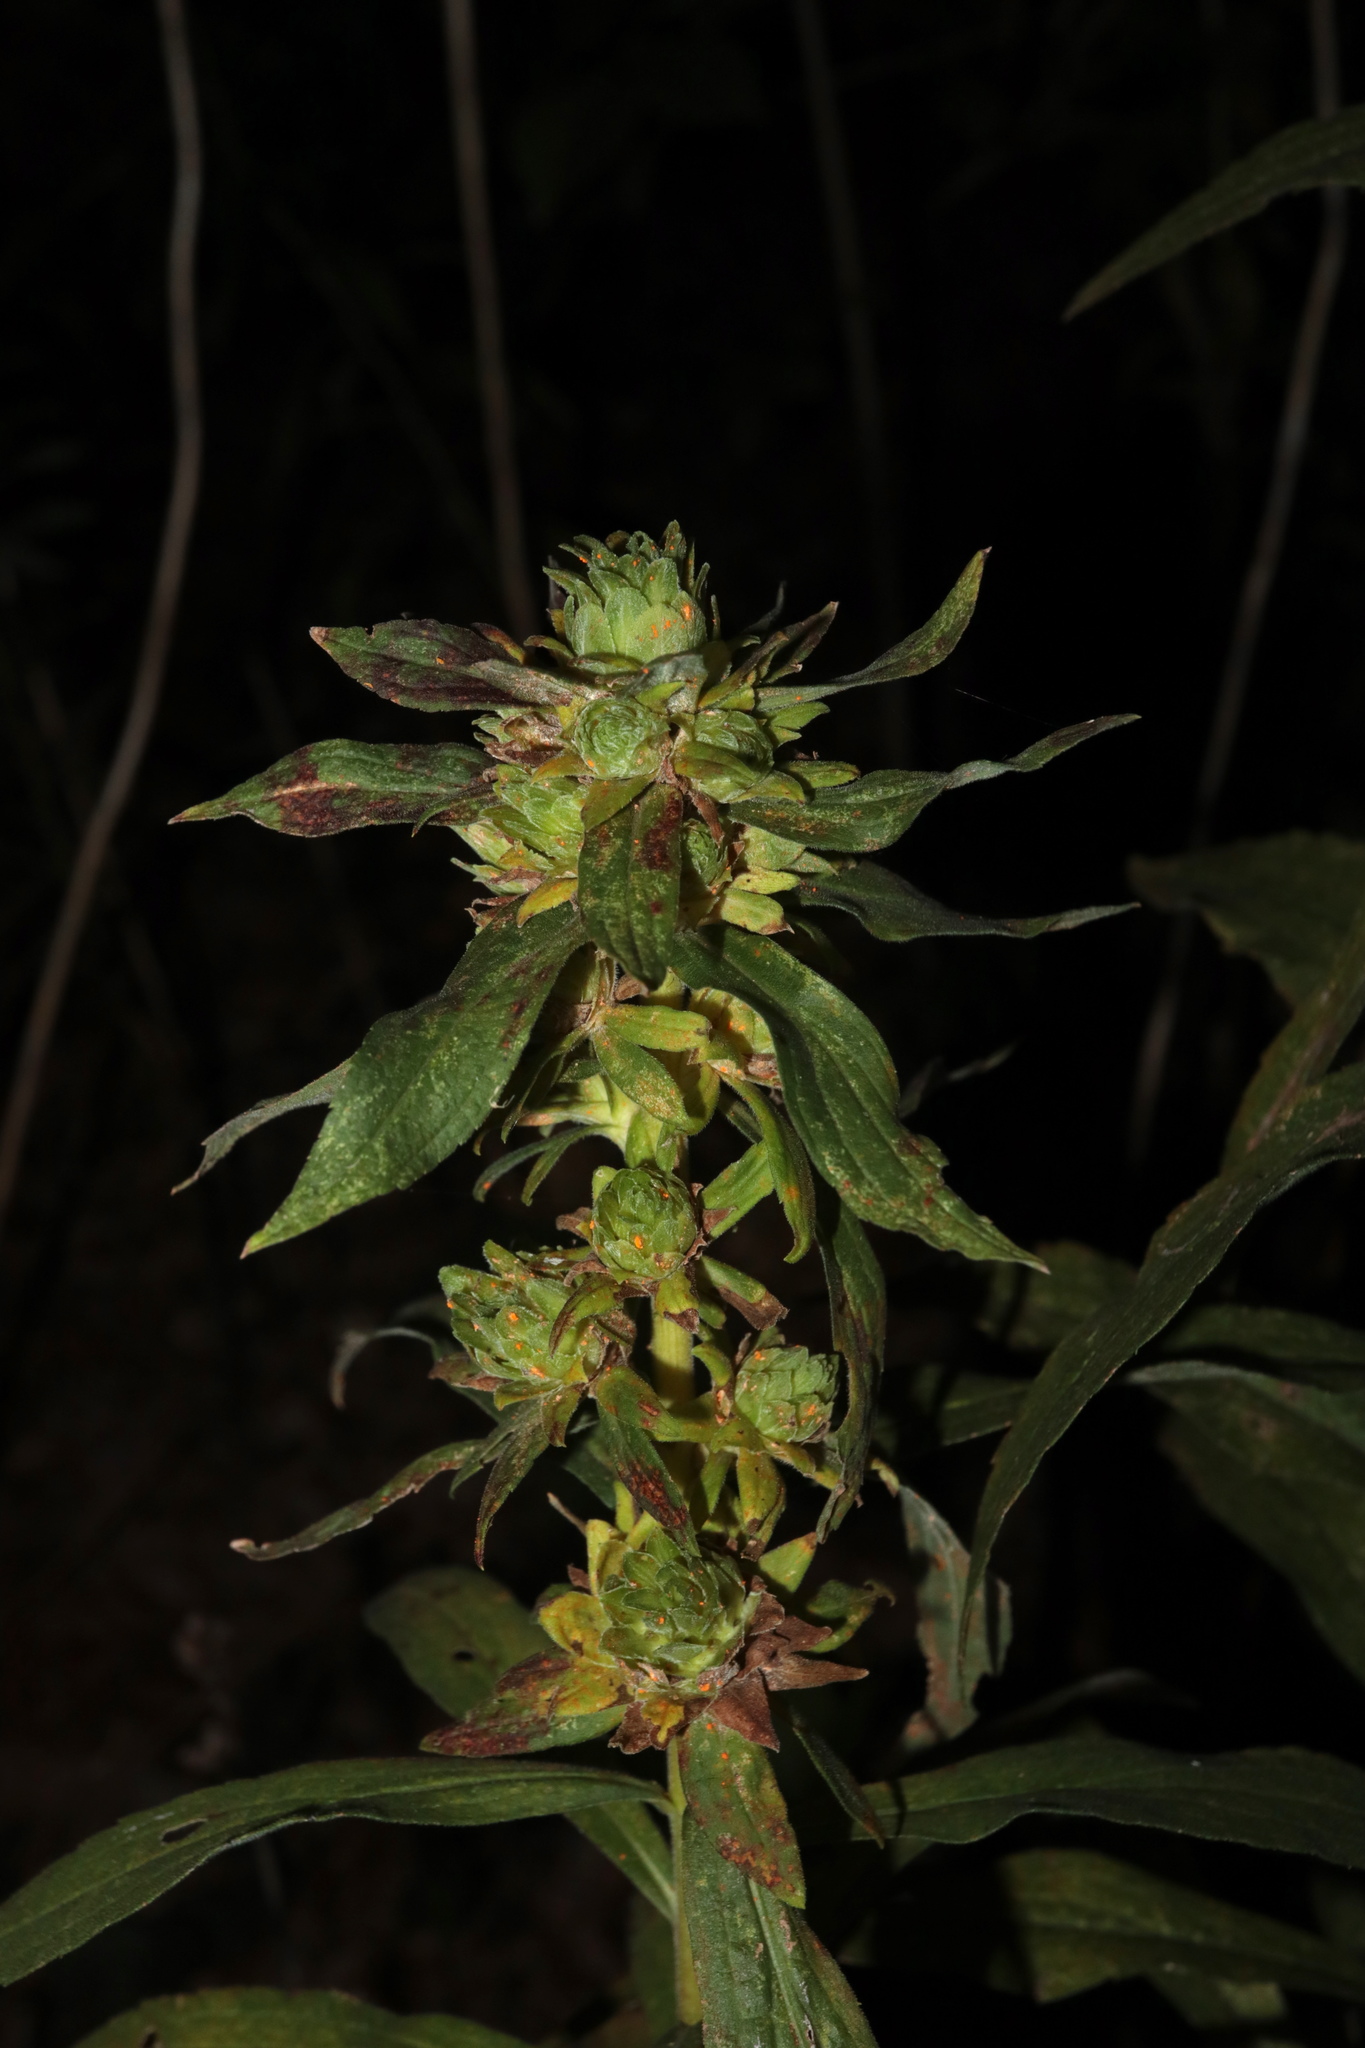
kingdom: Animalia
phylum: Arthropoda
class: Insecta
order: Diptera
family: Tephritidae
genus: Procecidochares
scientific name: Procecidochares atra
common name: Goldenrod brussels sprout gall fly
